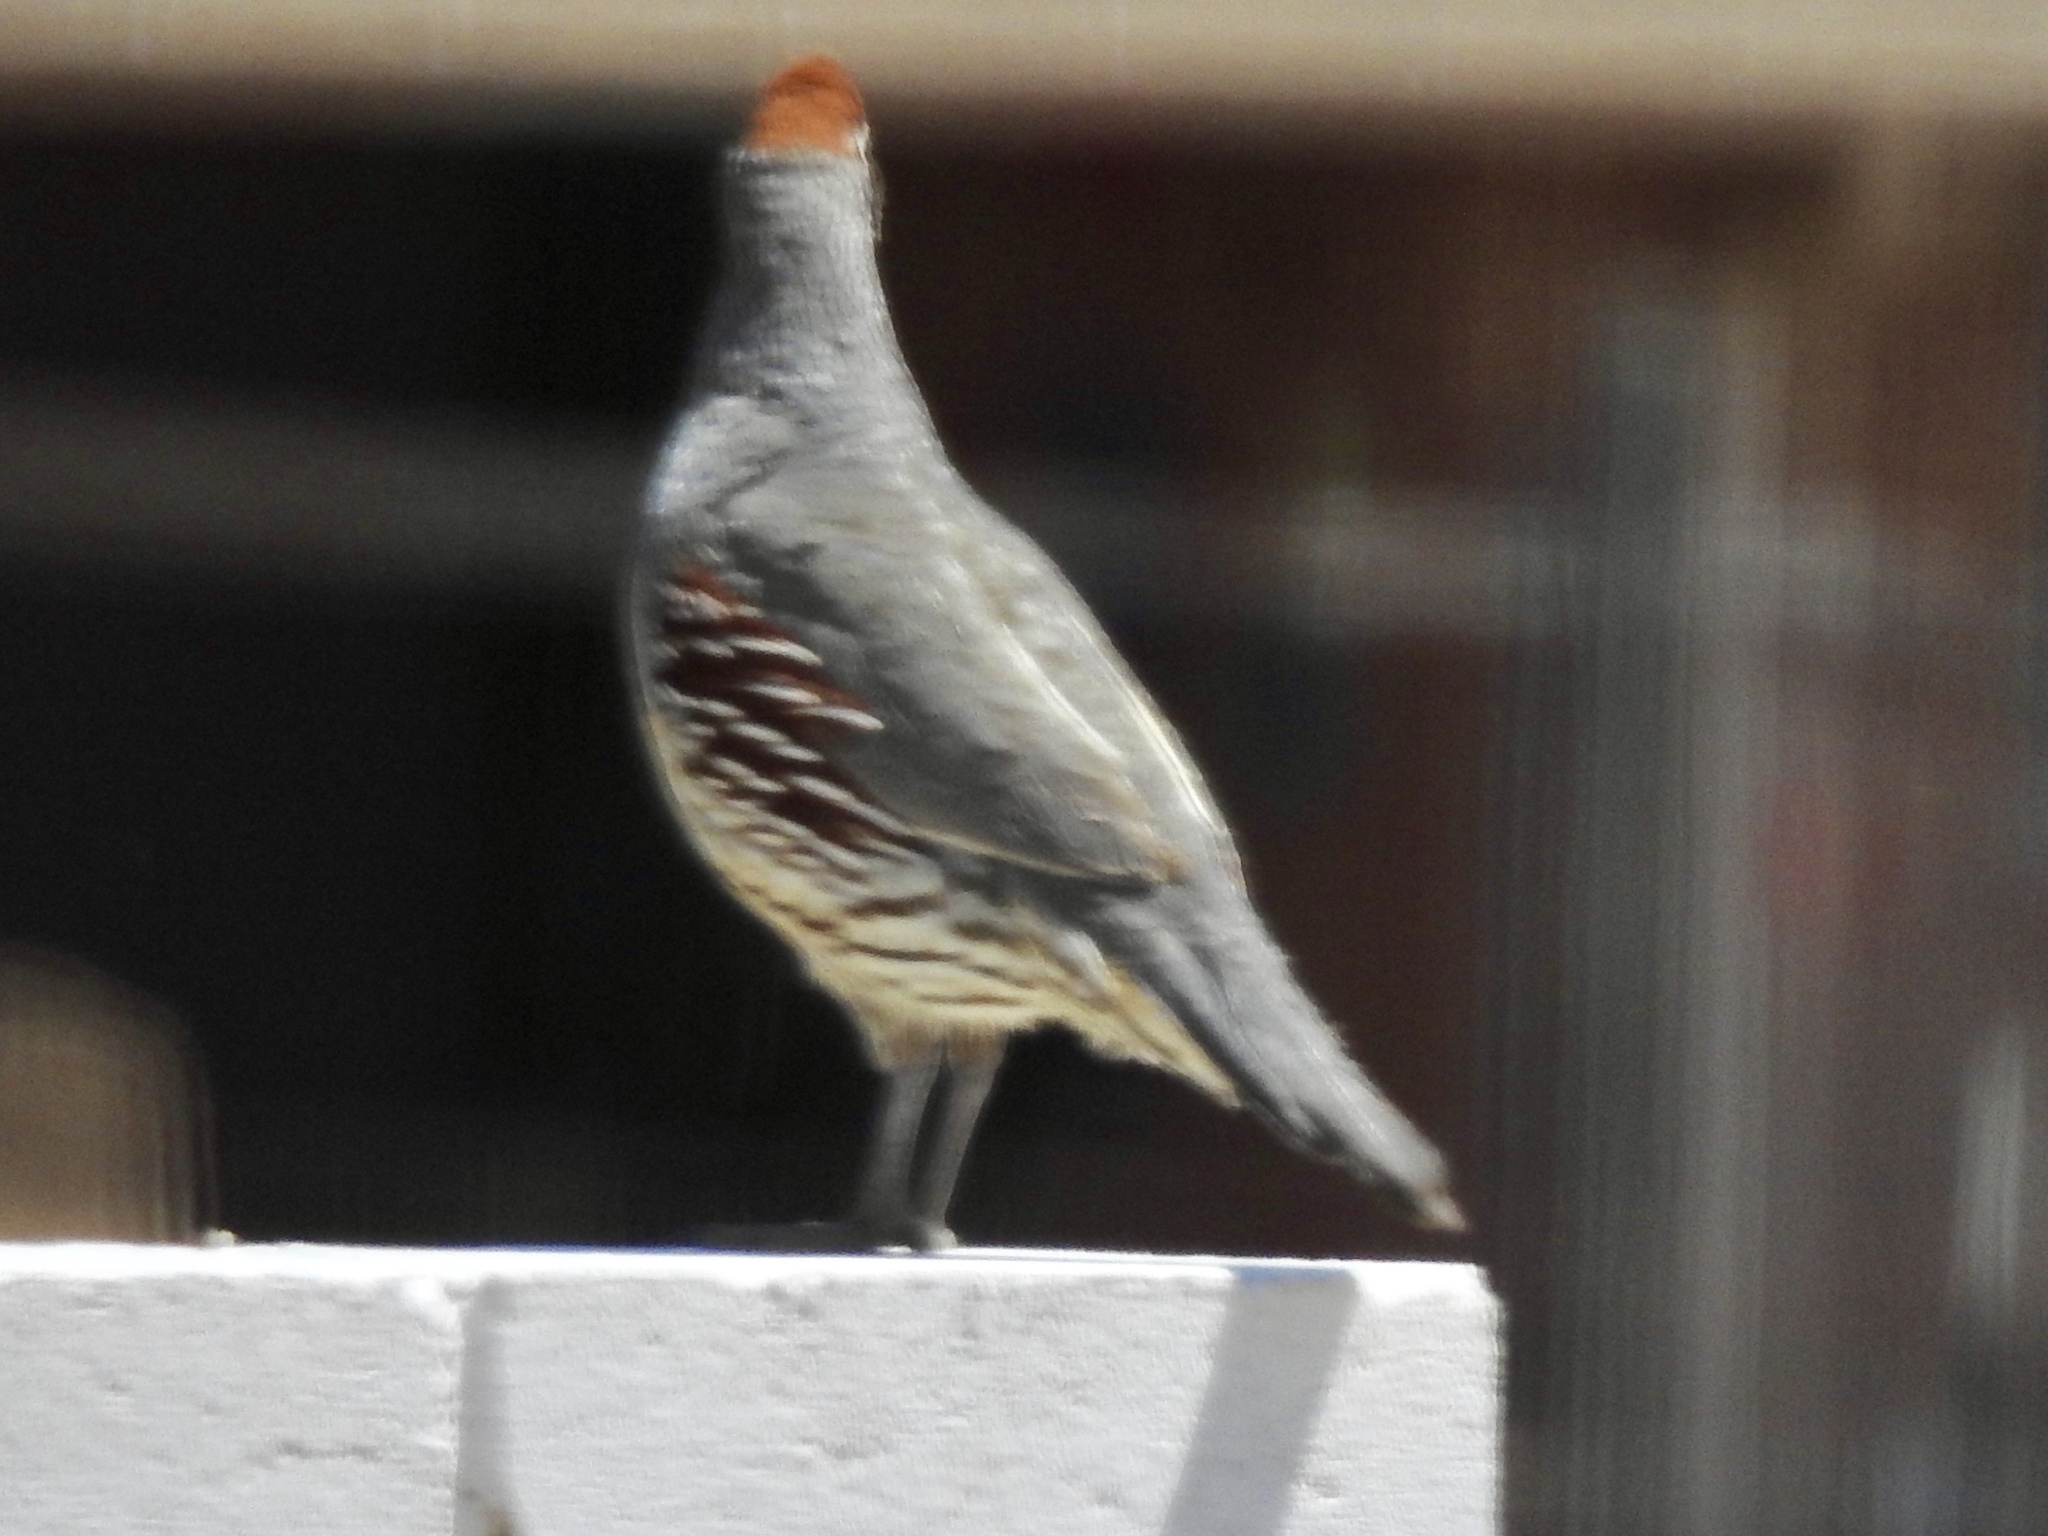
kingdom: Animalia
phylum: Chordata
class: Aves
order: Galliformes
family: Odontophoridae
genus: Callipepla
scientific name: Callipepla gambelii
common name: Gambel's quail
